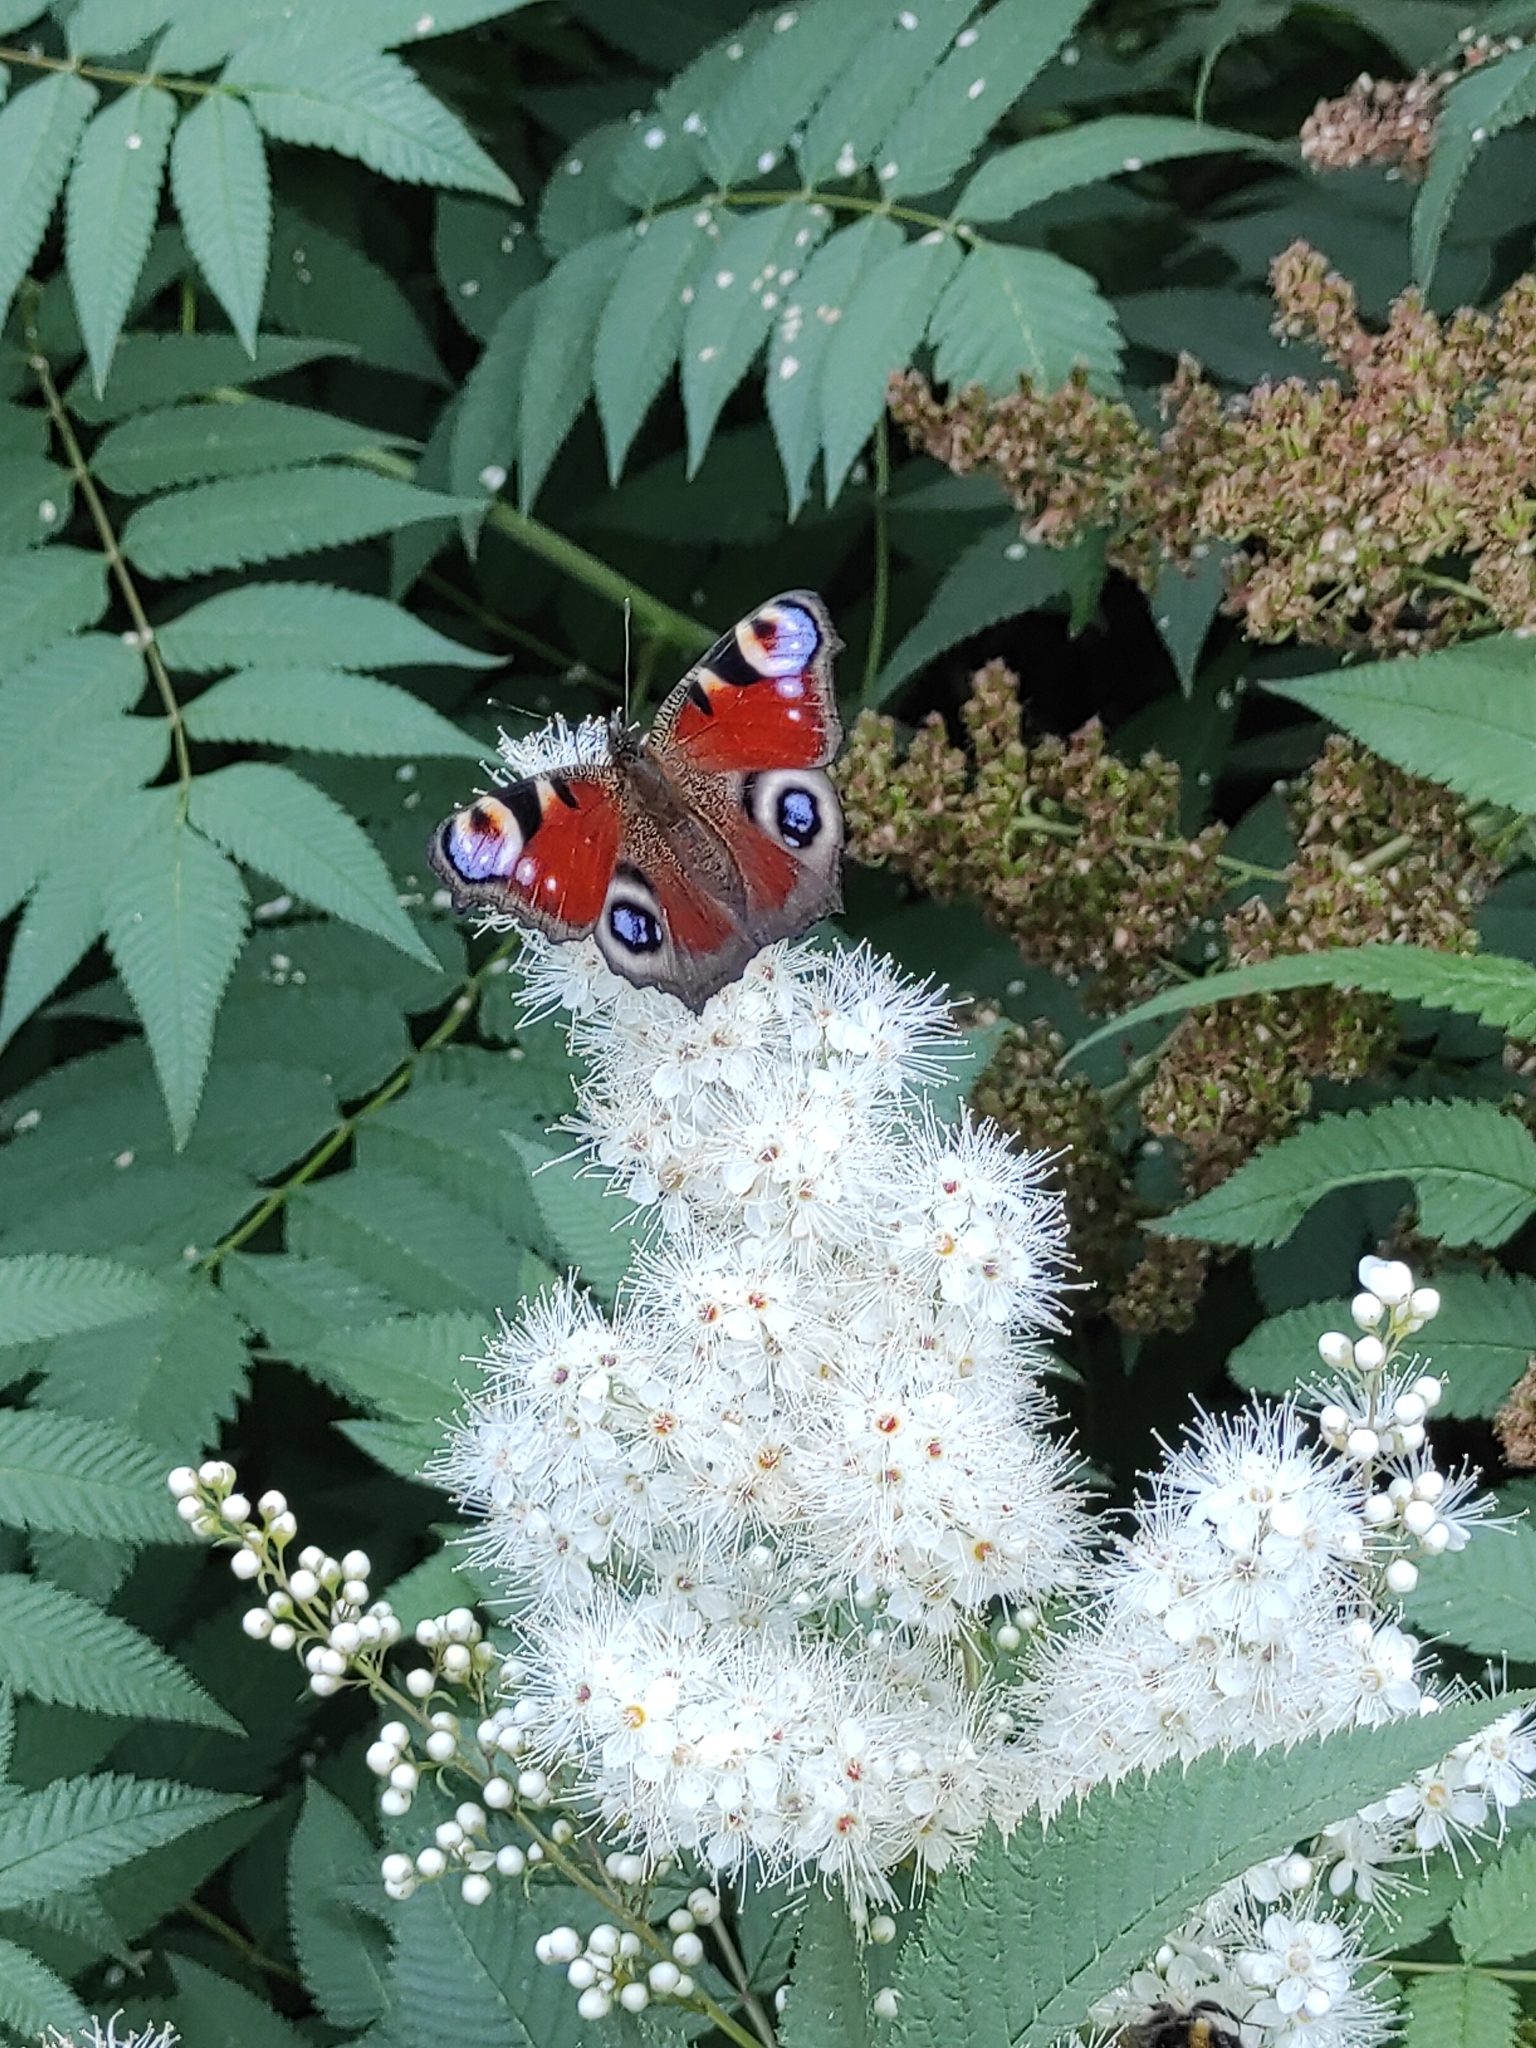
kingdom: Animalia
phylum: Arthropoda
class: Insecta
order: Lepidoptera
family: Nymphalidae
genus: Aglais
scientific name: Aglais io
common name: Peacock
